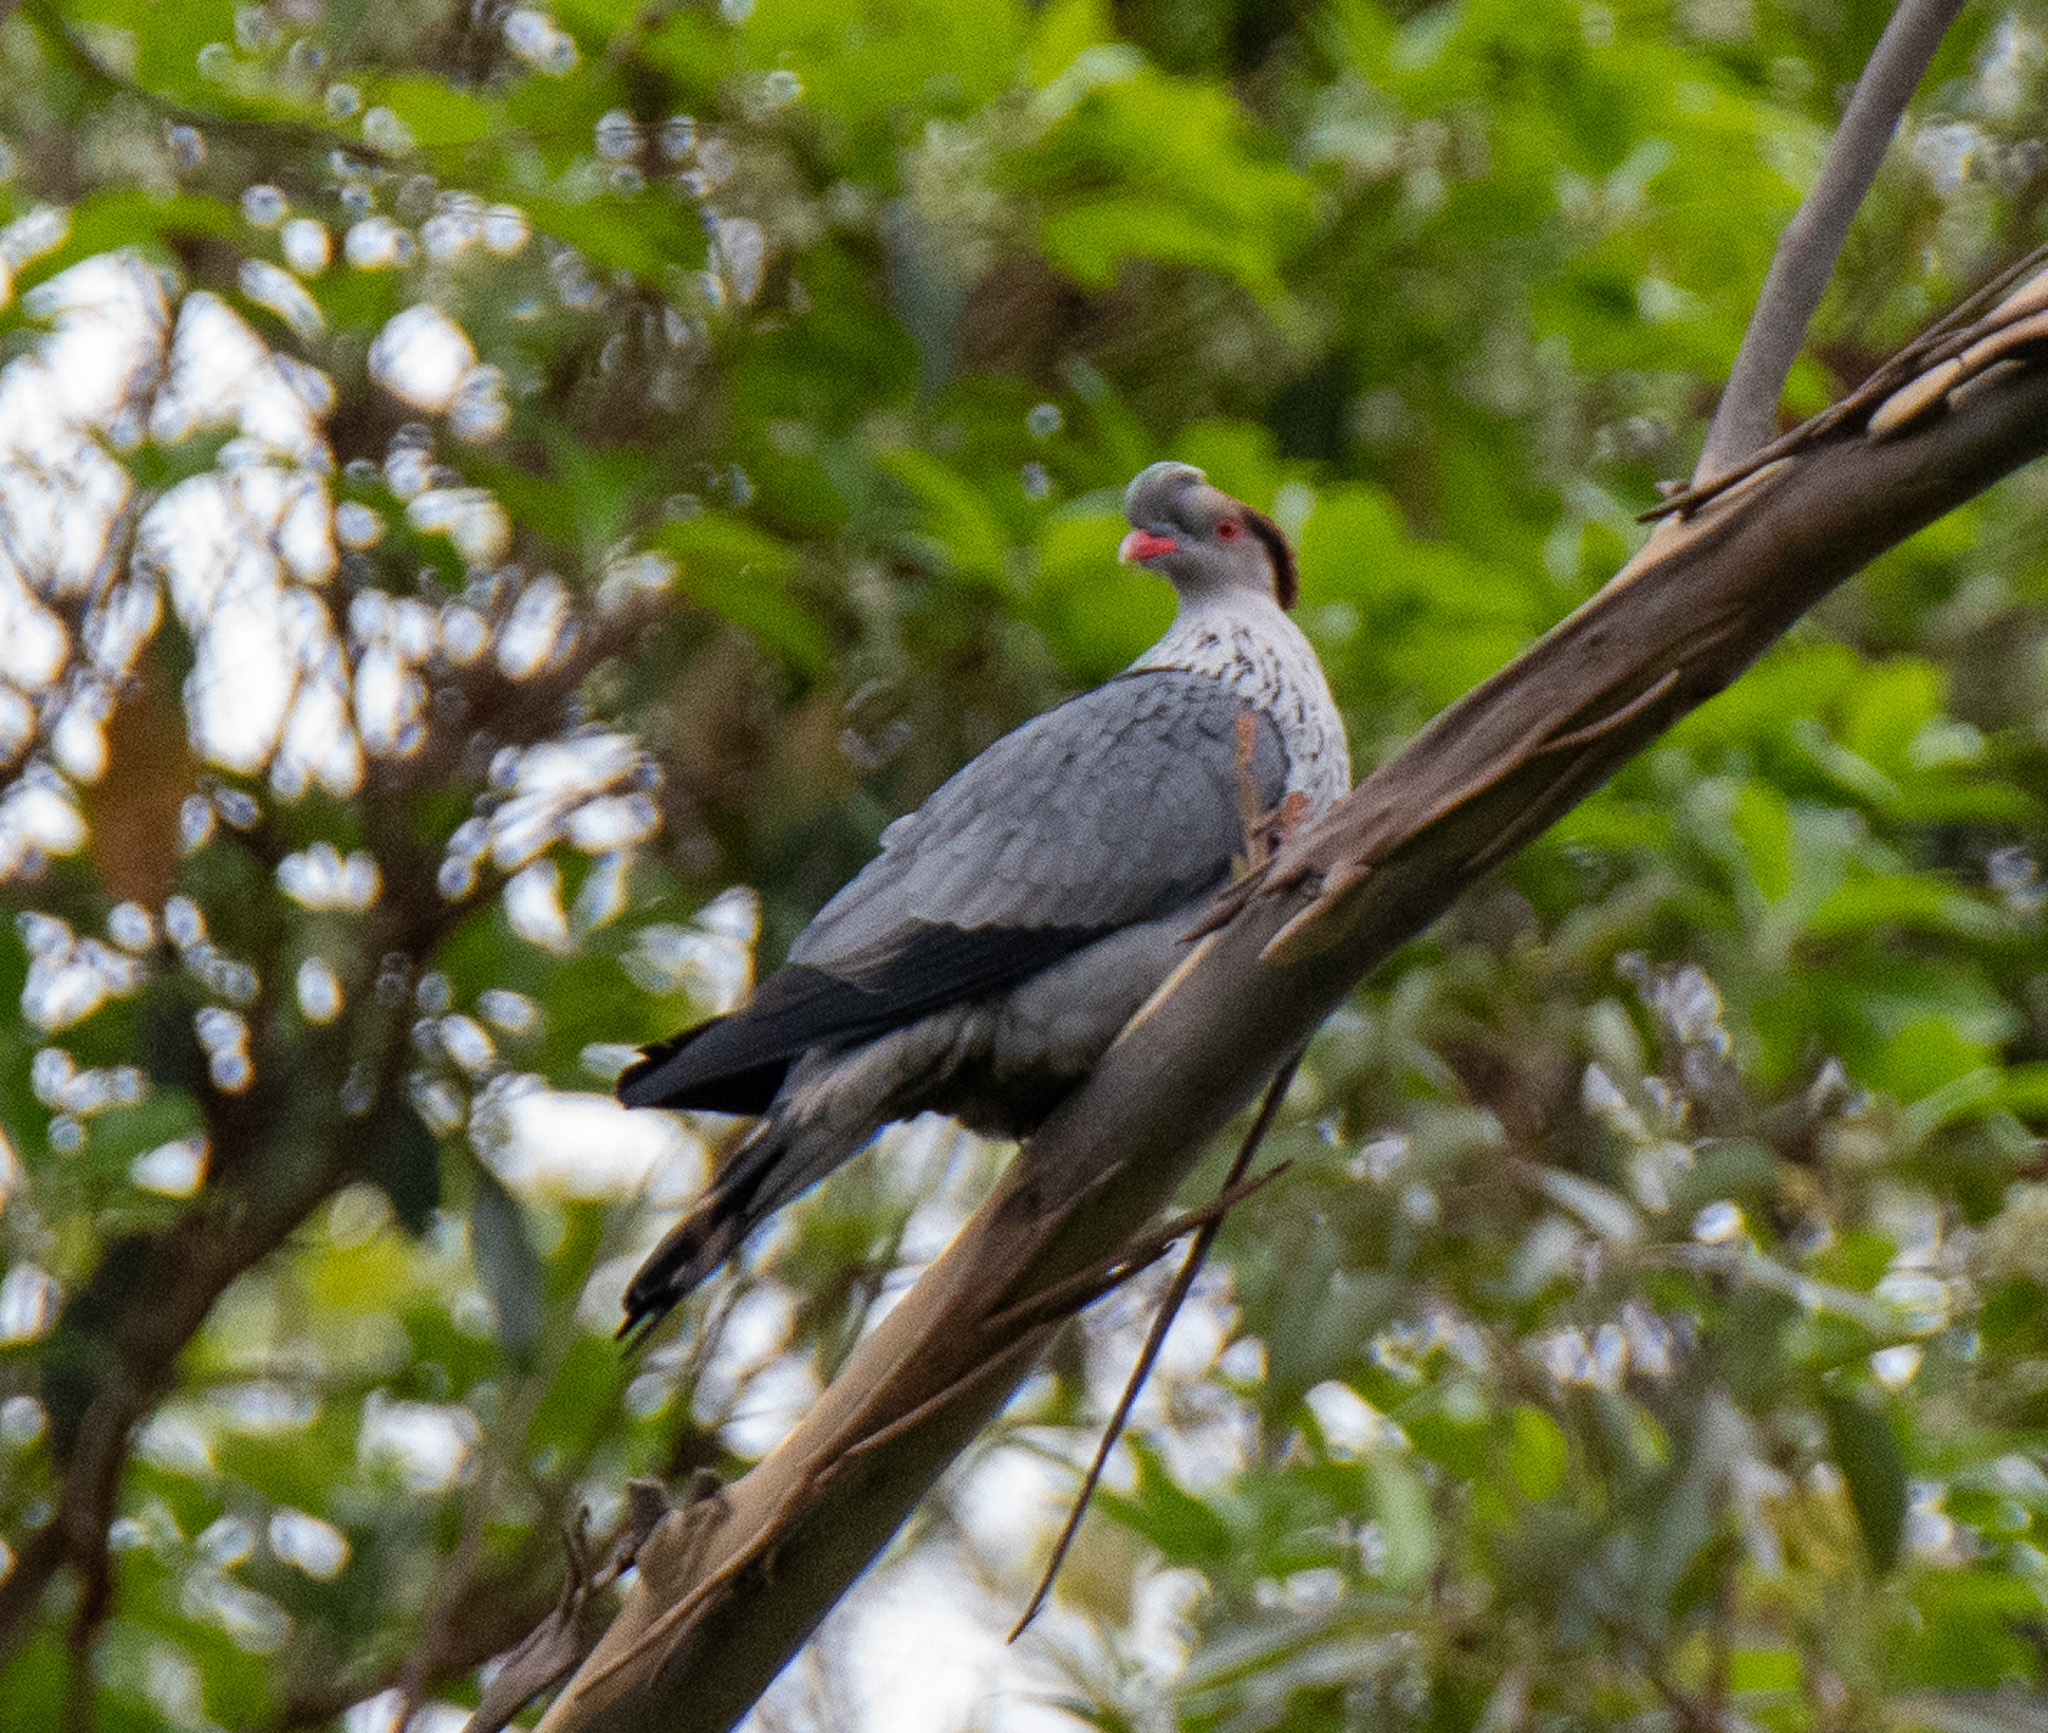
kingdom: Animalia
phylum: Chordata
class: Aves
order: Columbiformes
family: Columbidae
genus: Lopholaimus
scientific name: Lopholaimus antarcticus
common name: Topknot pigeon
